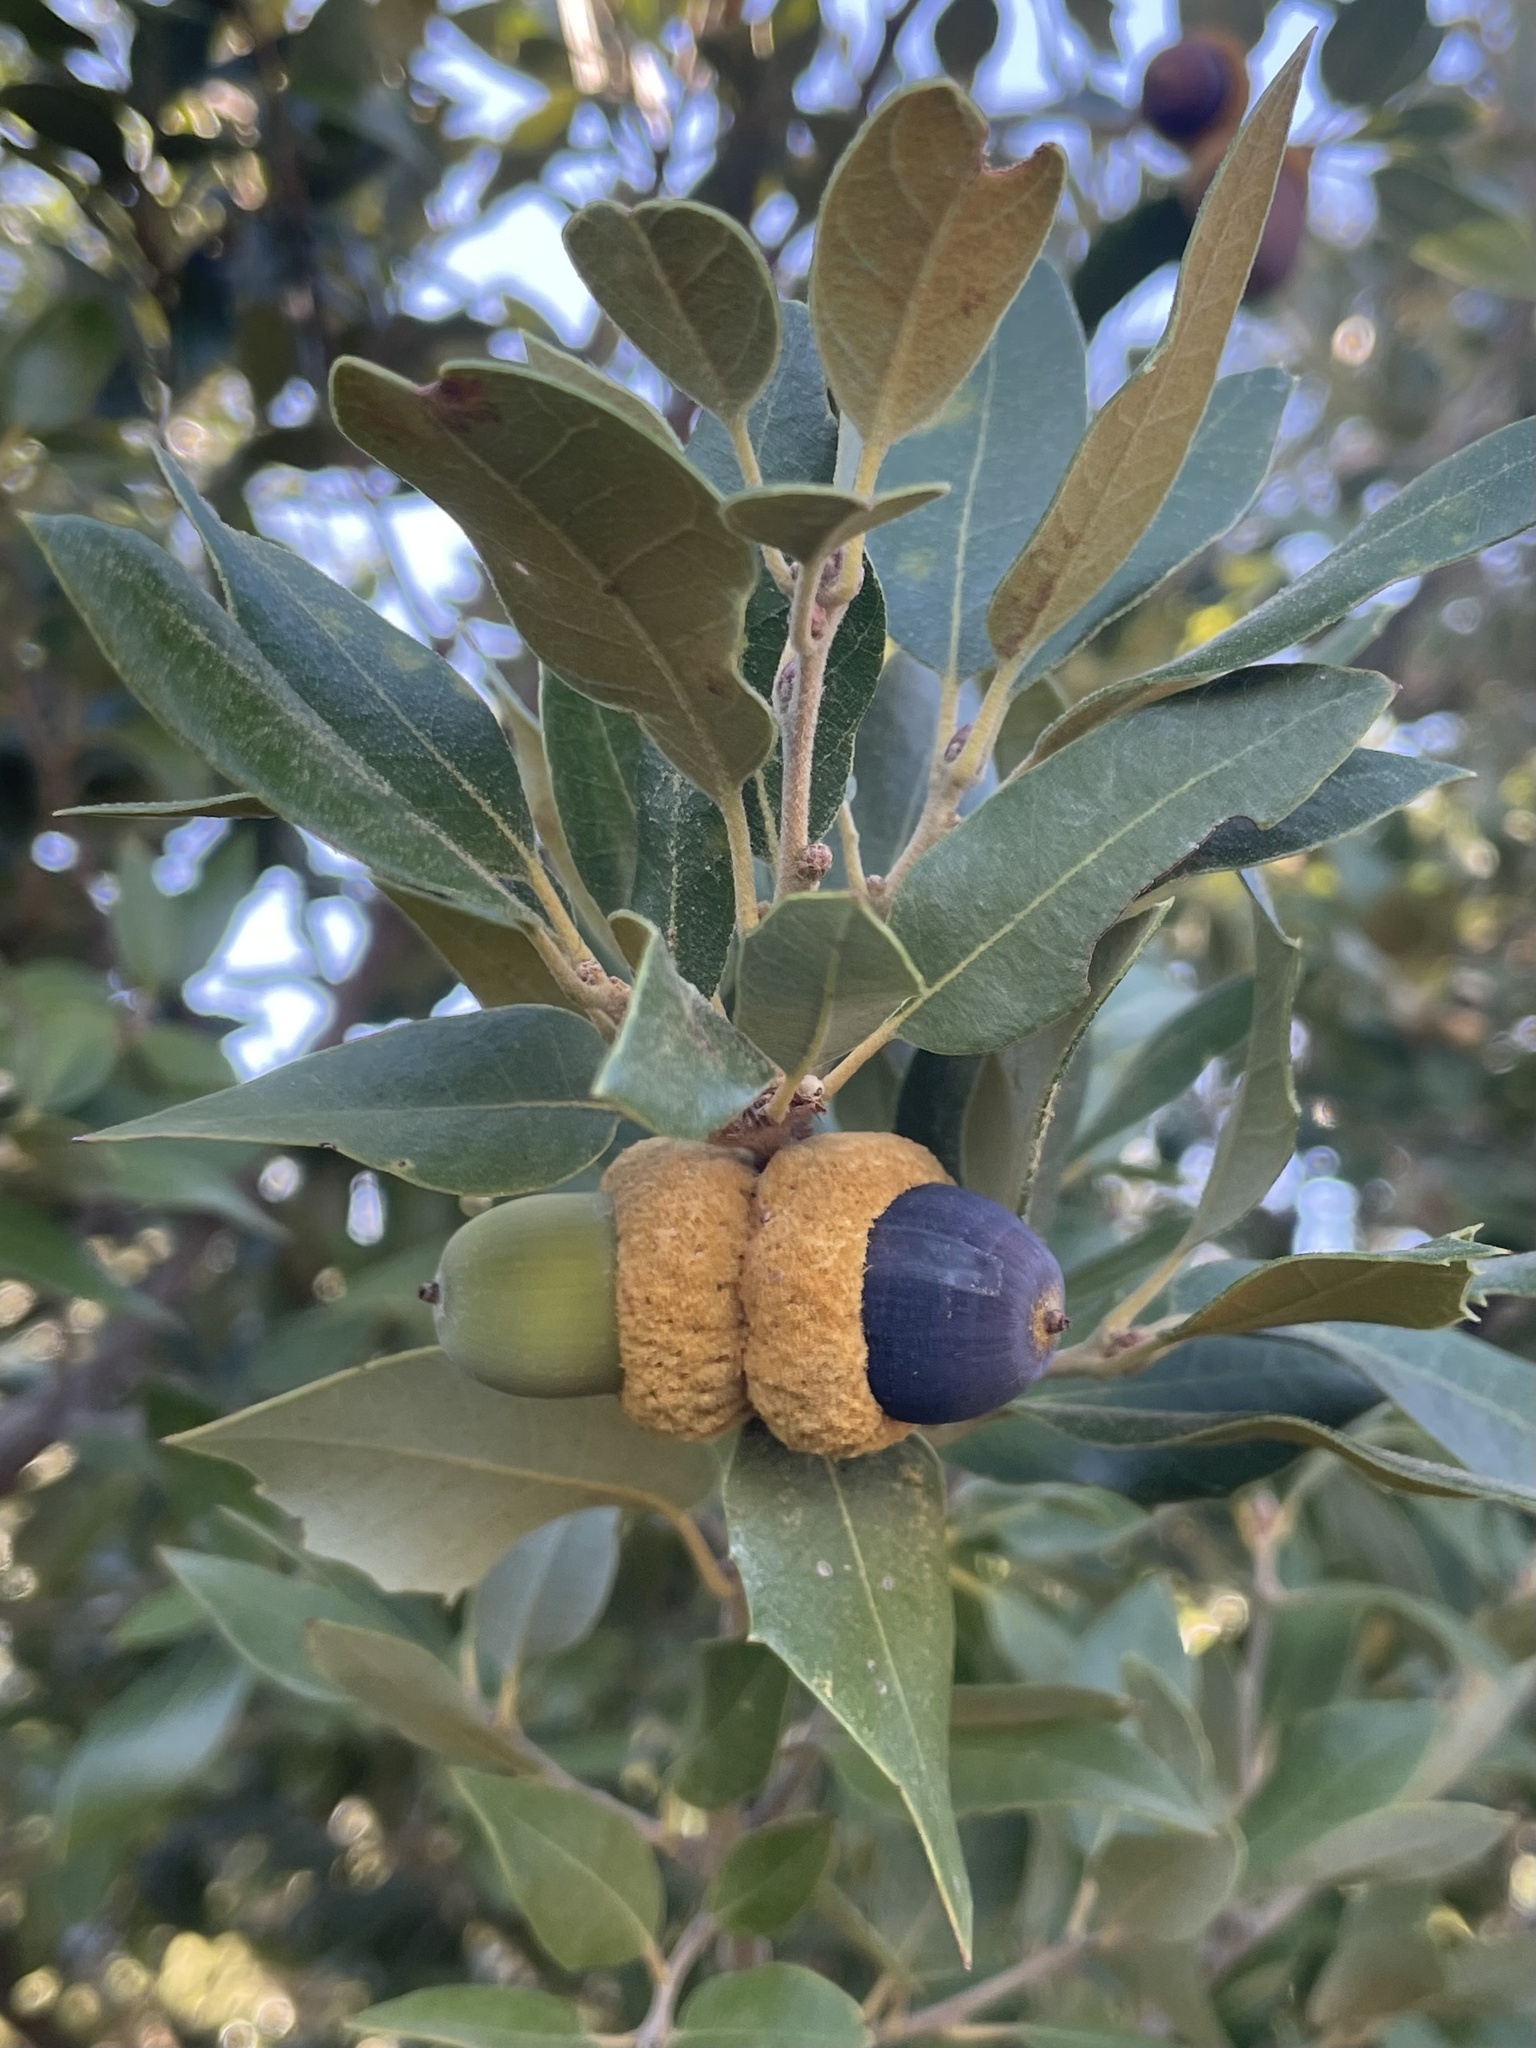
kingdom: Plantae
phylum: Tracheophyta
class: Magnoliopsida
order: Fagales
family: Fagaceae
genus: Quercus
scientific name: Quercus chrysolepis
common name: Canyon live oak
